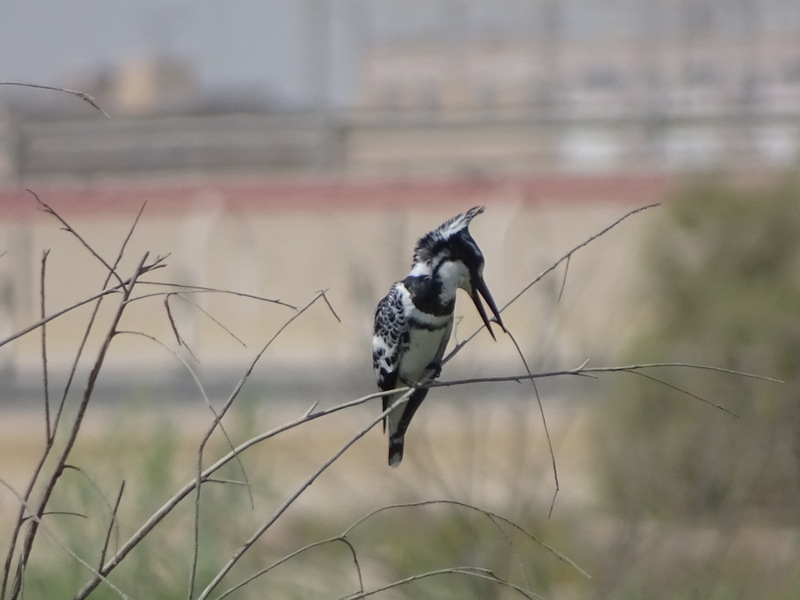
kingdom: Animalia
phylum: Chordata
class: Aves
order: Coraciiformes
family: Alcedinidae
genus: Ceryle
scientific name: Ceryle rudis
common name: Pied kingfisher
